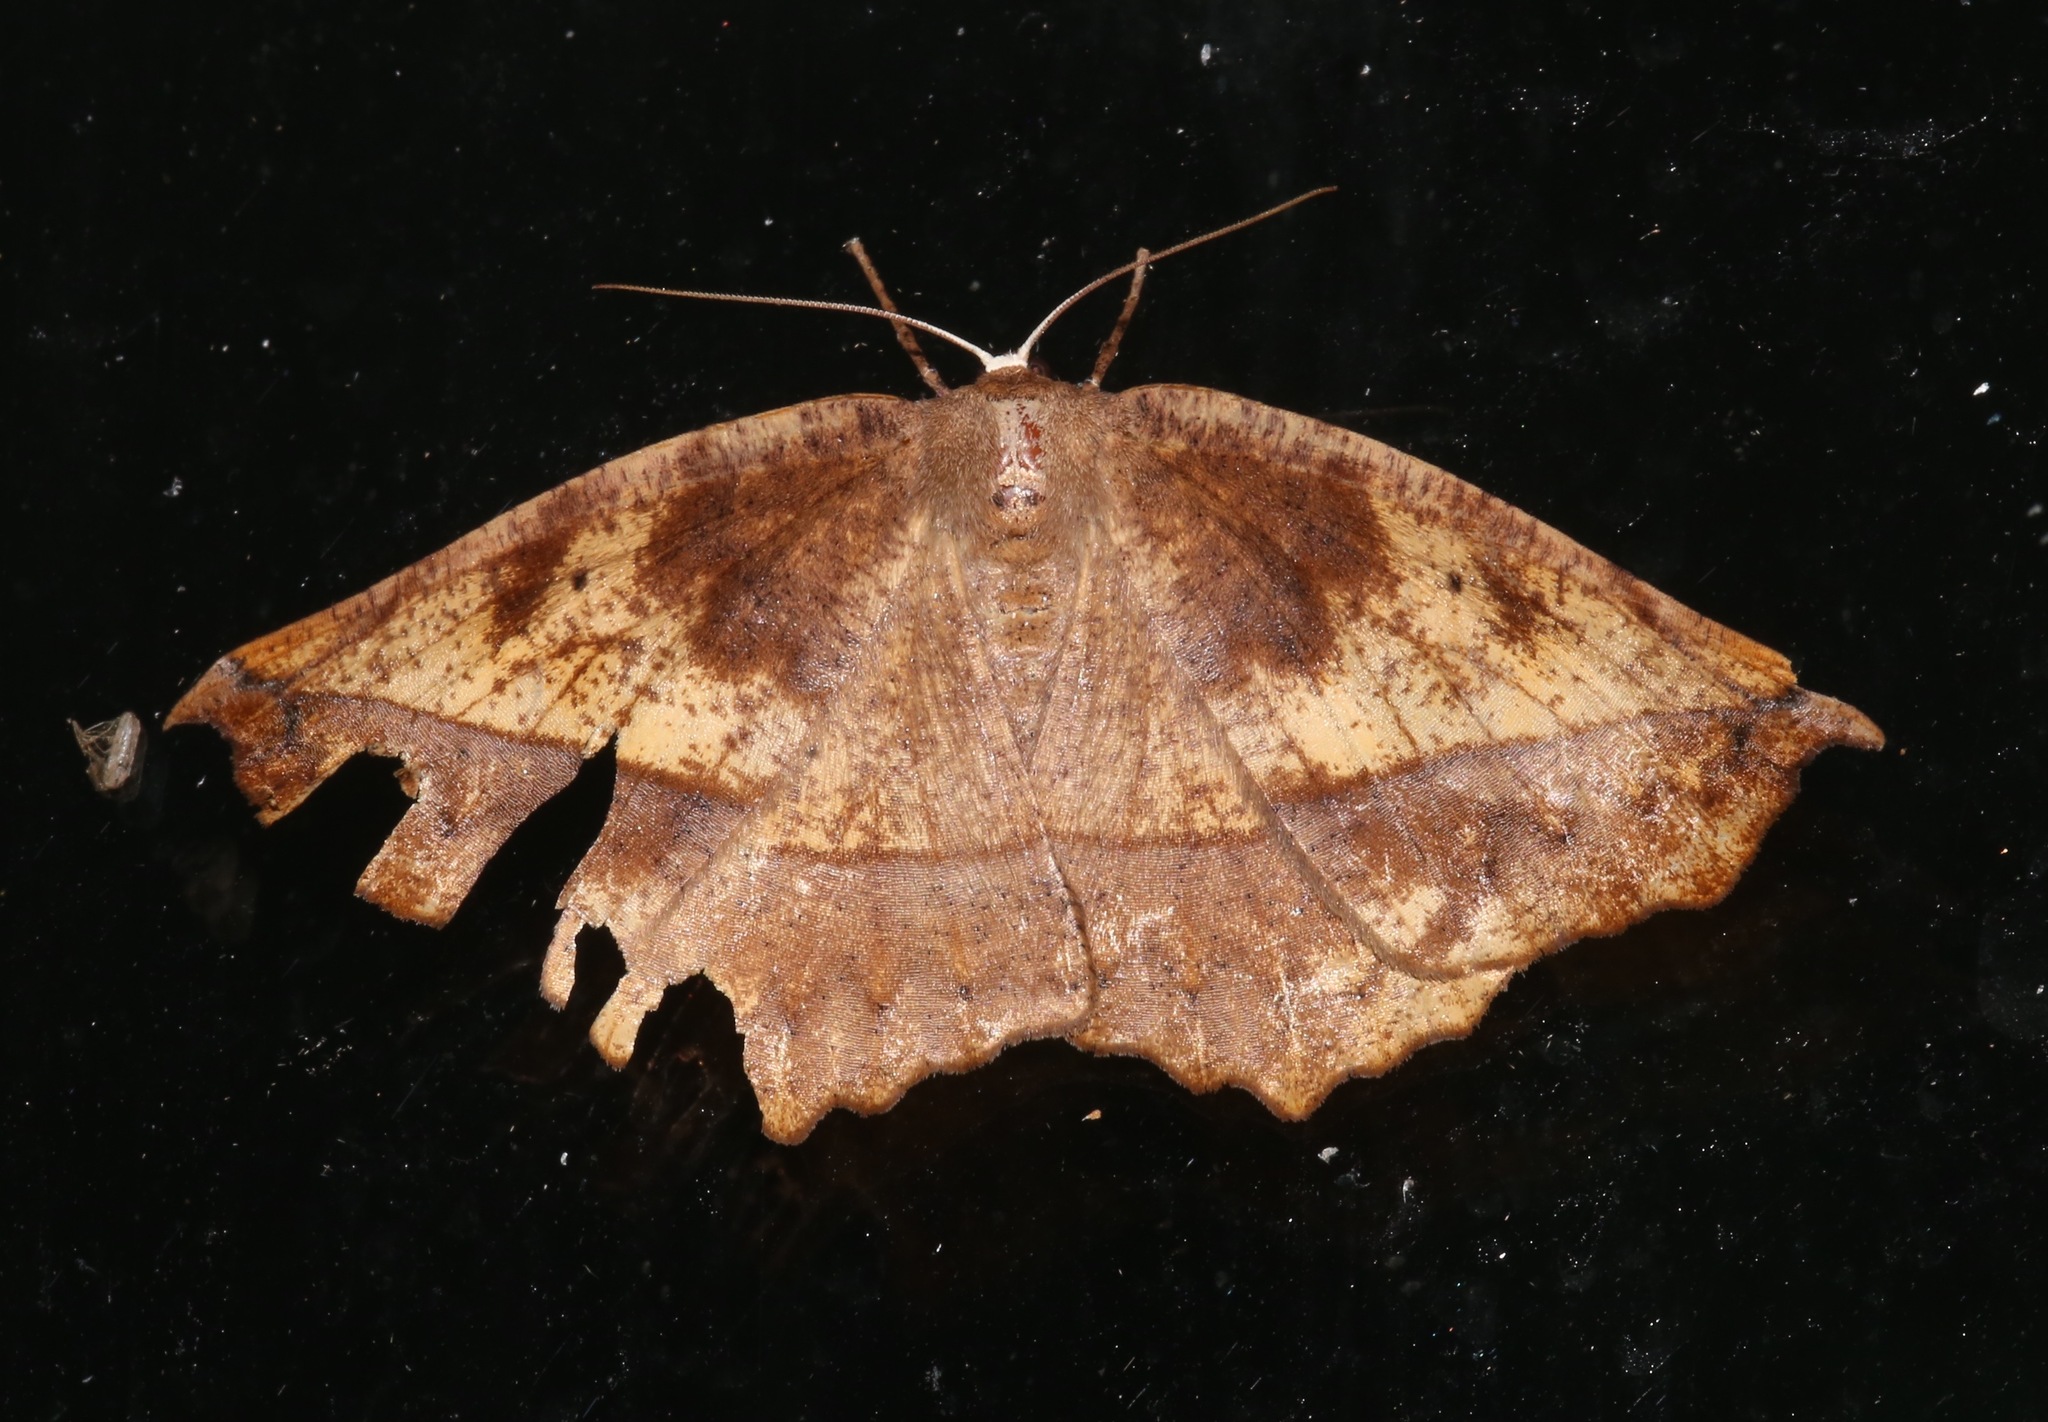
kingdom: Animalia
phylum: Arthropoda
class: Insecta
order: Lepidoptera
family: Geometridae
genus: Eutrapela
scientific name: Eutrapela clemataria
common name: Curved-toothed geometer
